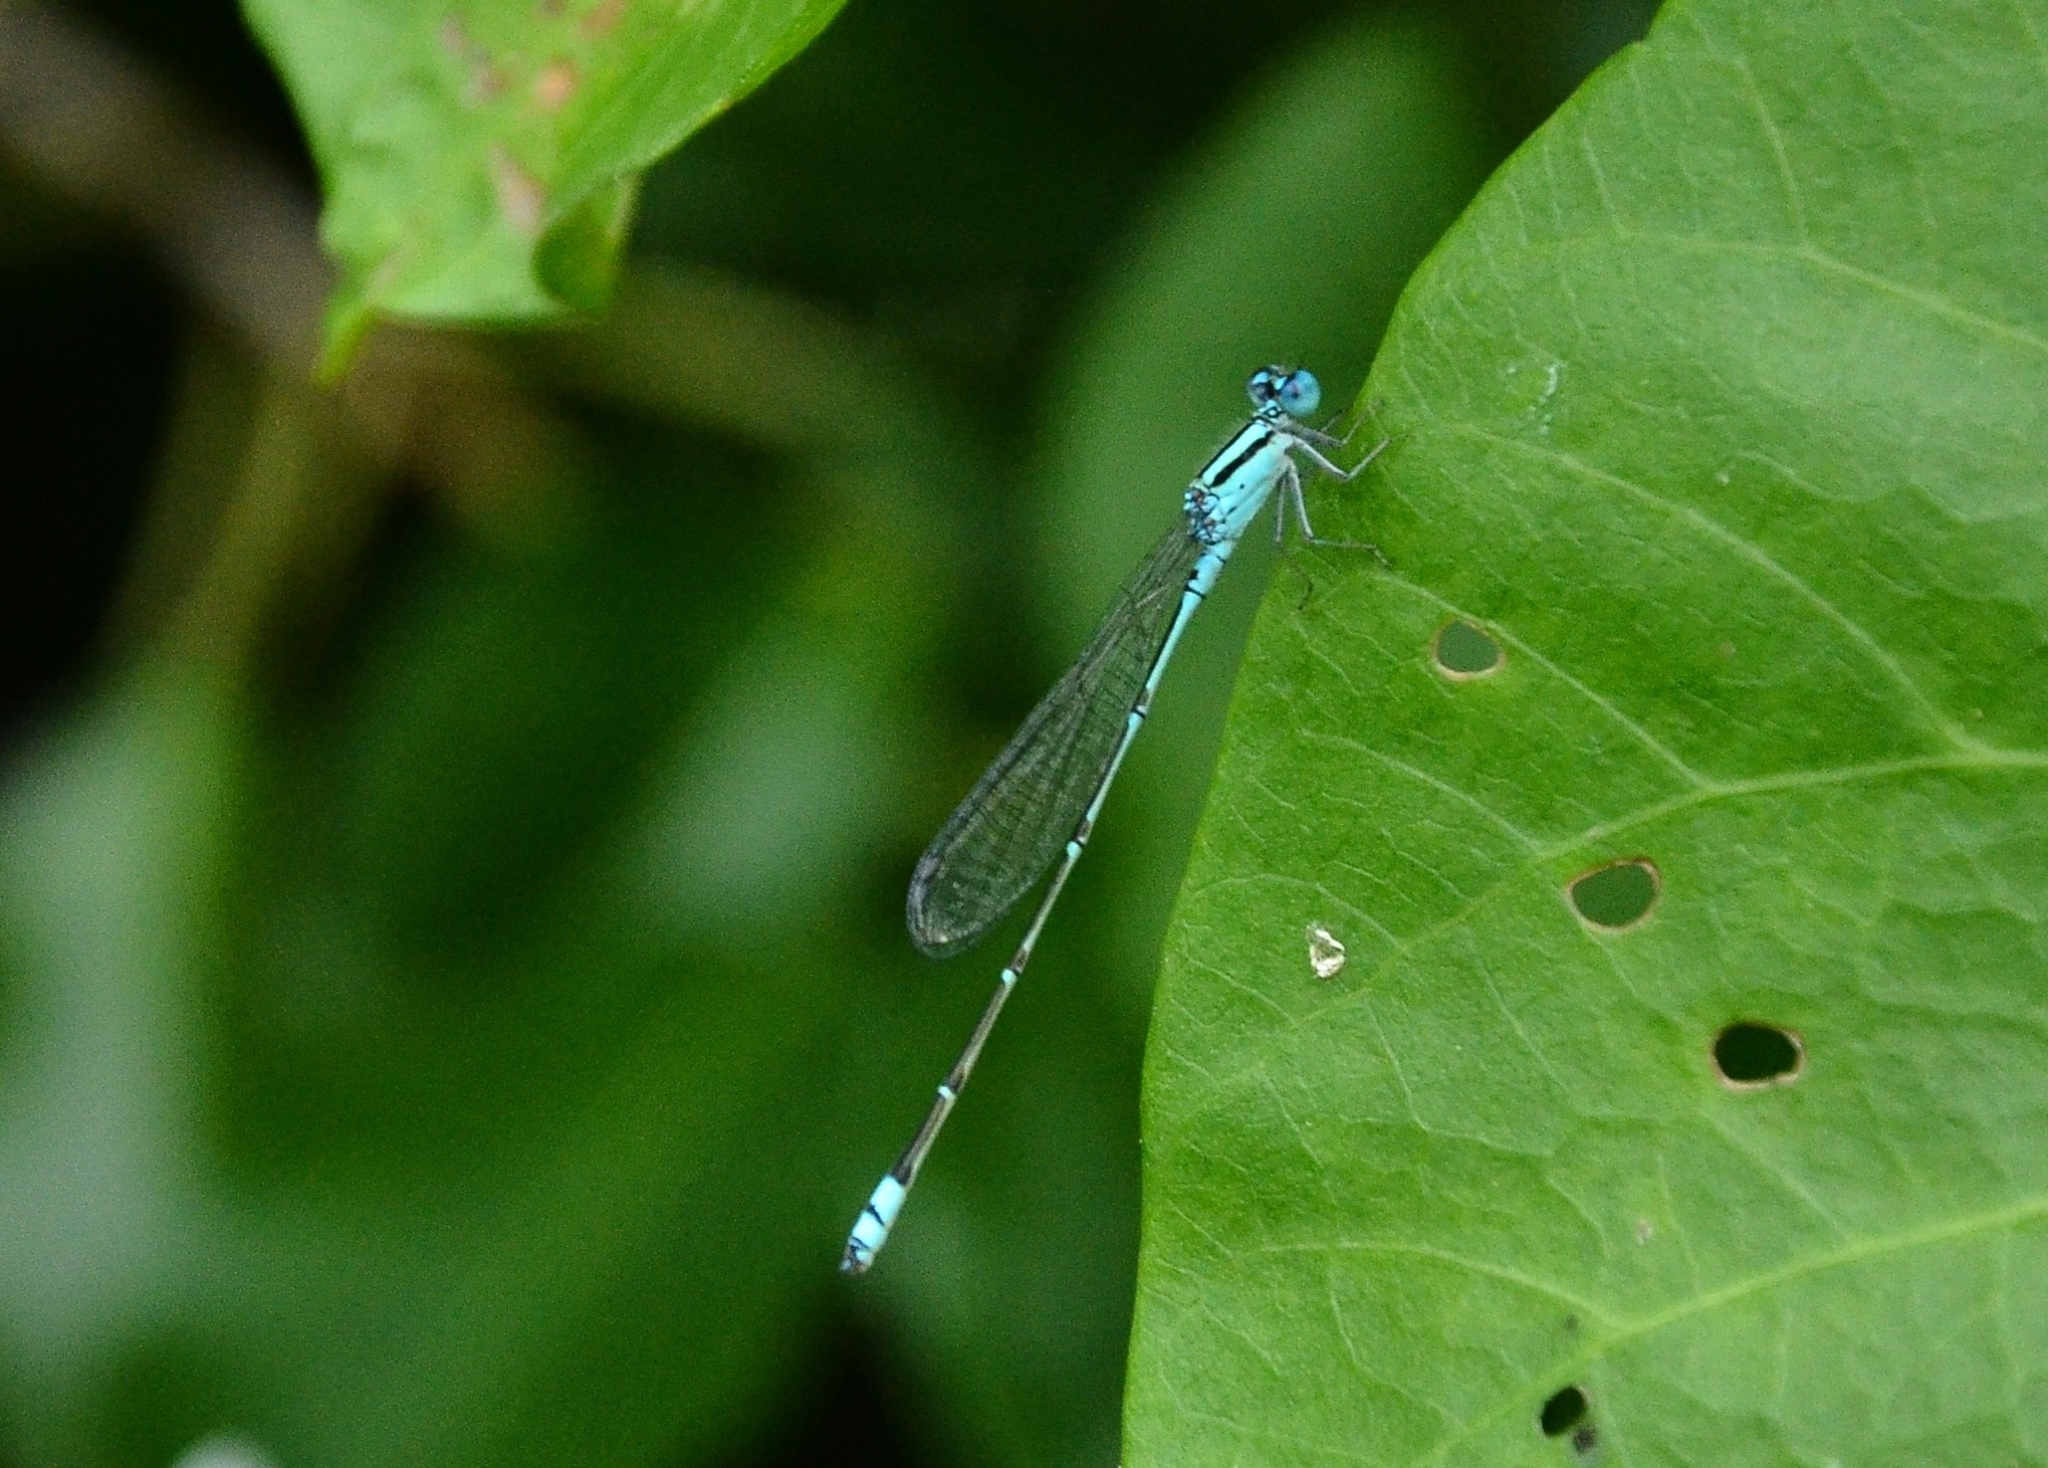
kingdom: Animalia
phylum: Arthropoda
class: Insecta
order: Odonata
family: Coenagrionidae
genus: Pseudagrion
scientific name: Pseudagrion microcephalum
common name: Blue riverdamsel
